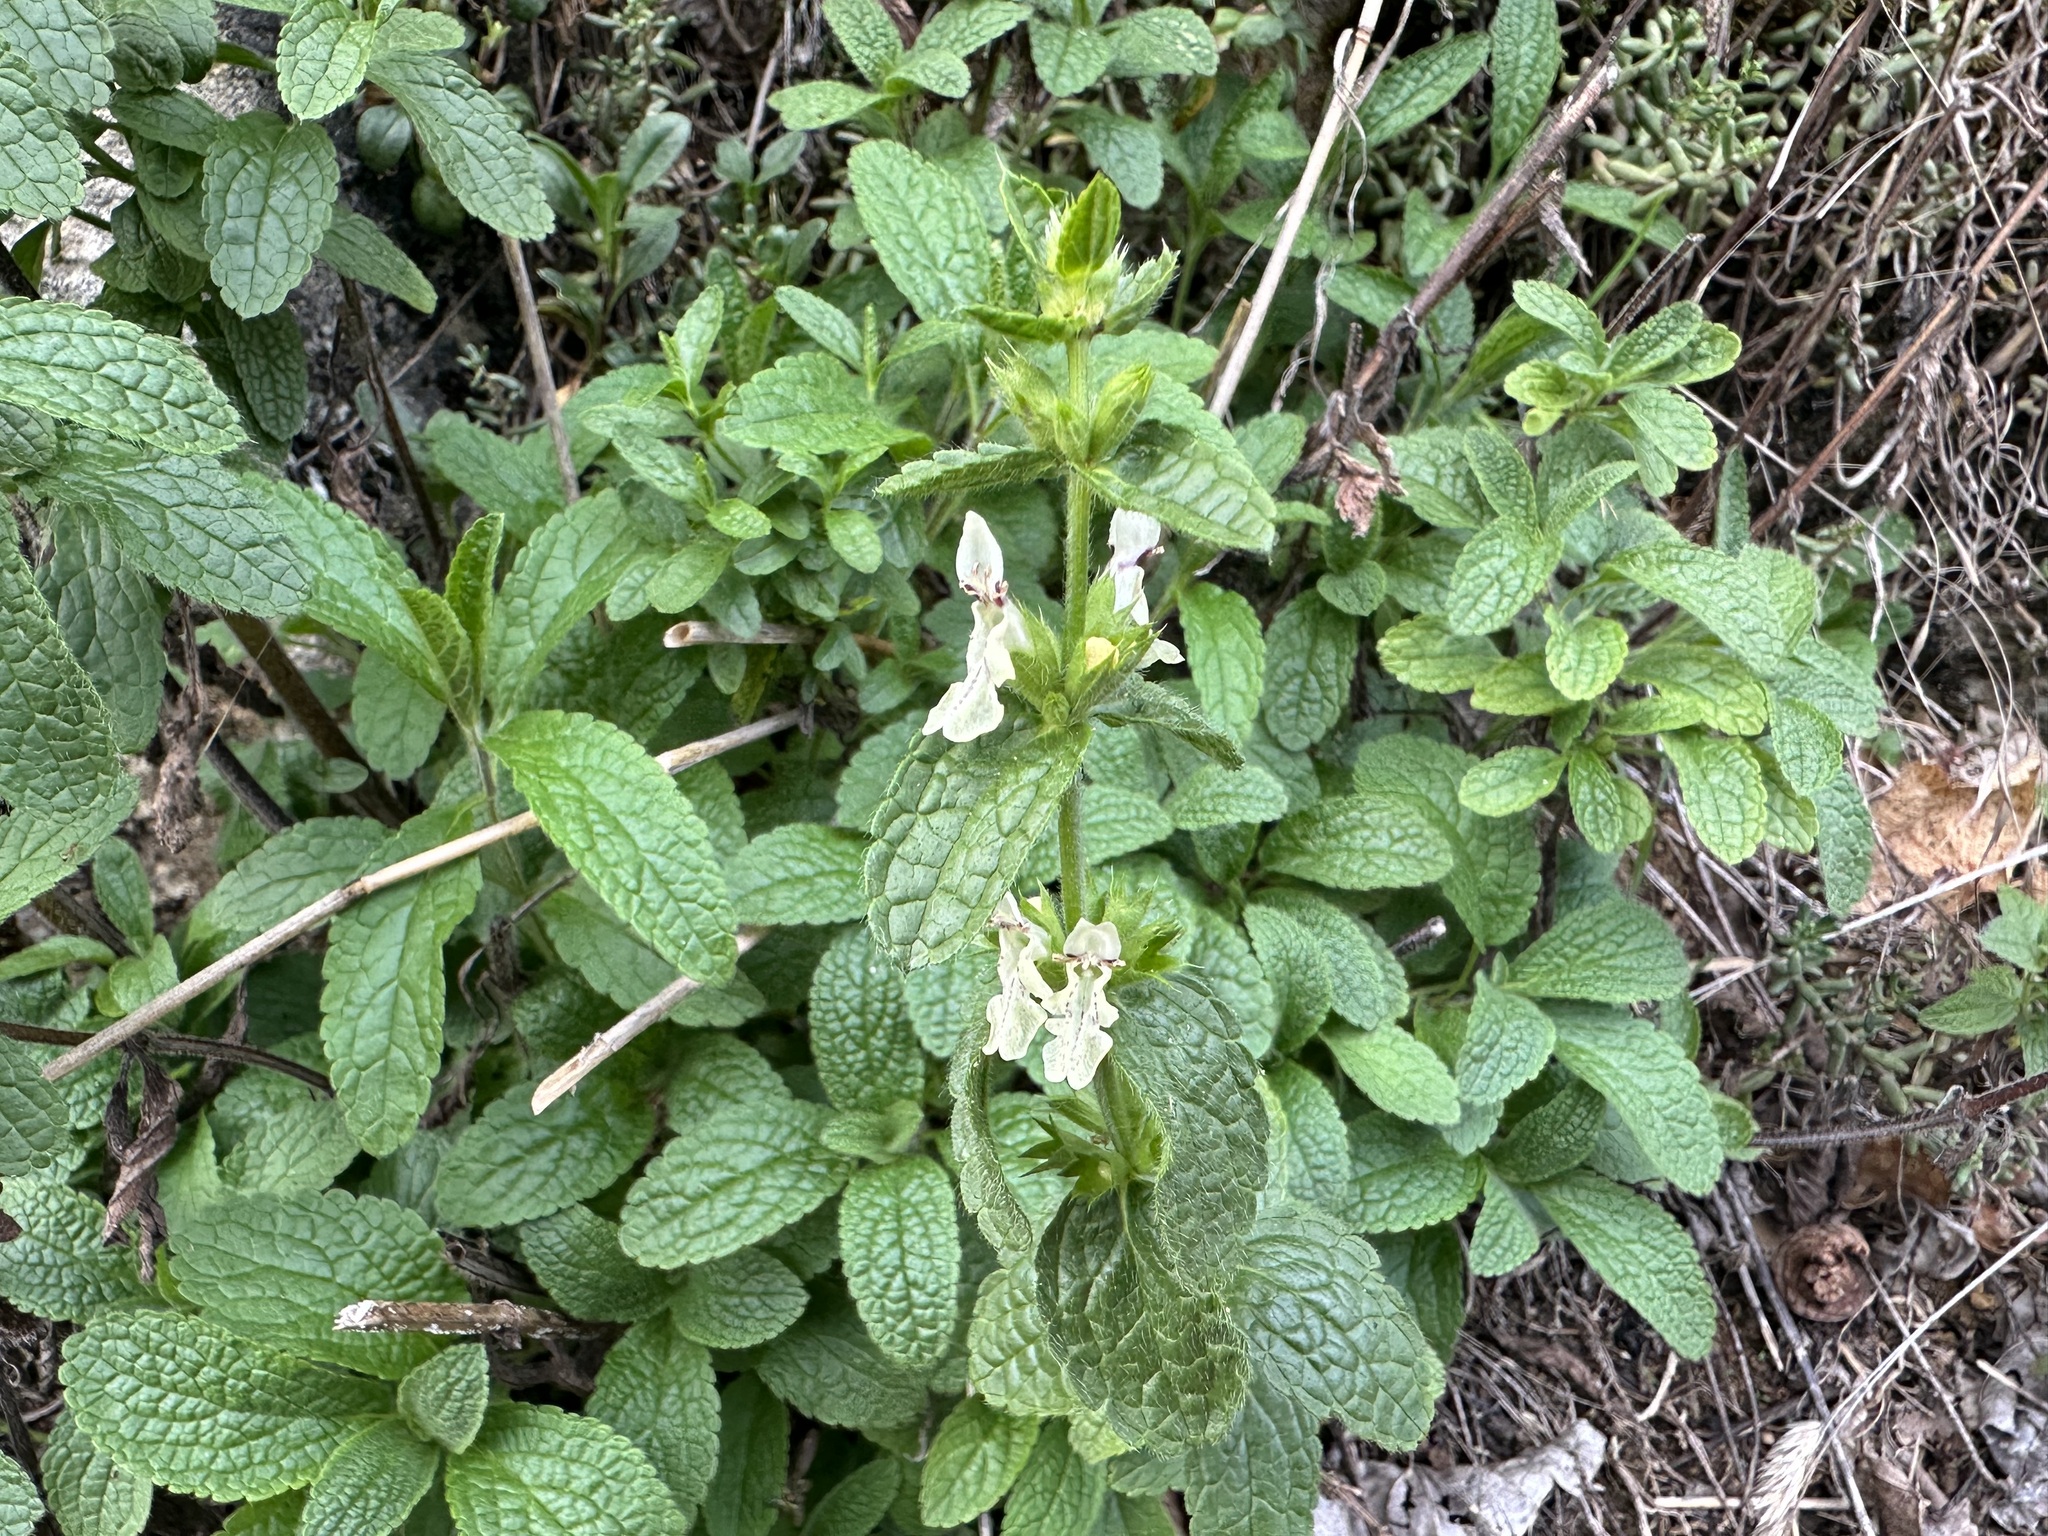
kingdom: Plantae
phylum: Tracheophyta
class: Magnoliopsida
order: Lamiales
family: Lamiaceae
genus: Stachys
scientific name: Stachys recta
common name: Perennial yellow-woundwort
